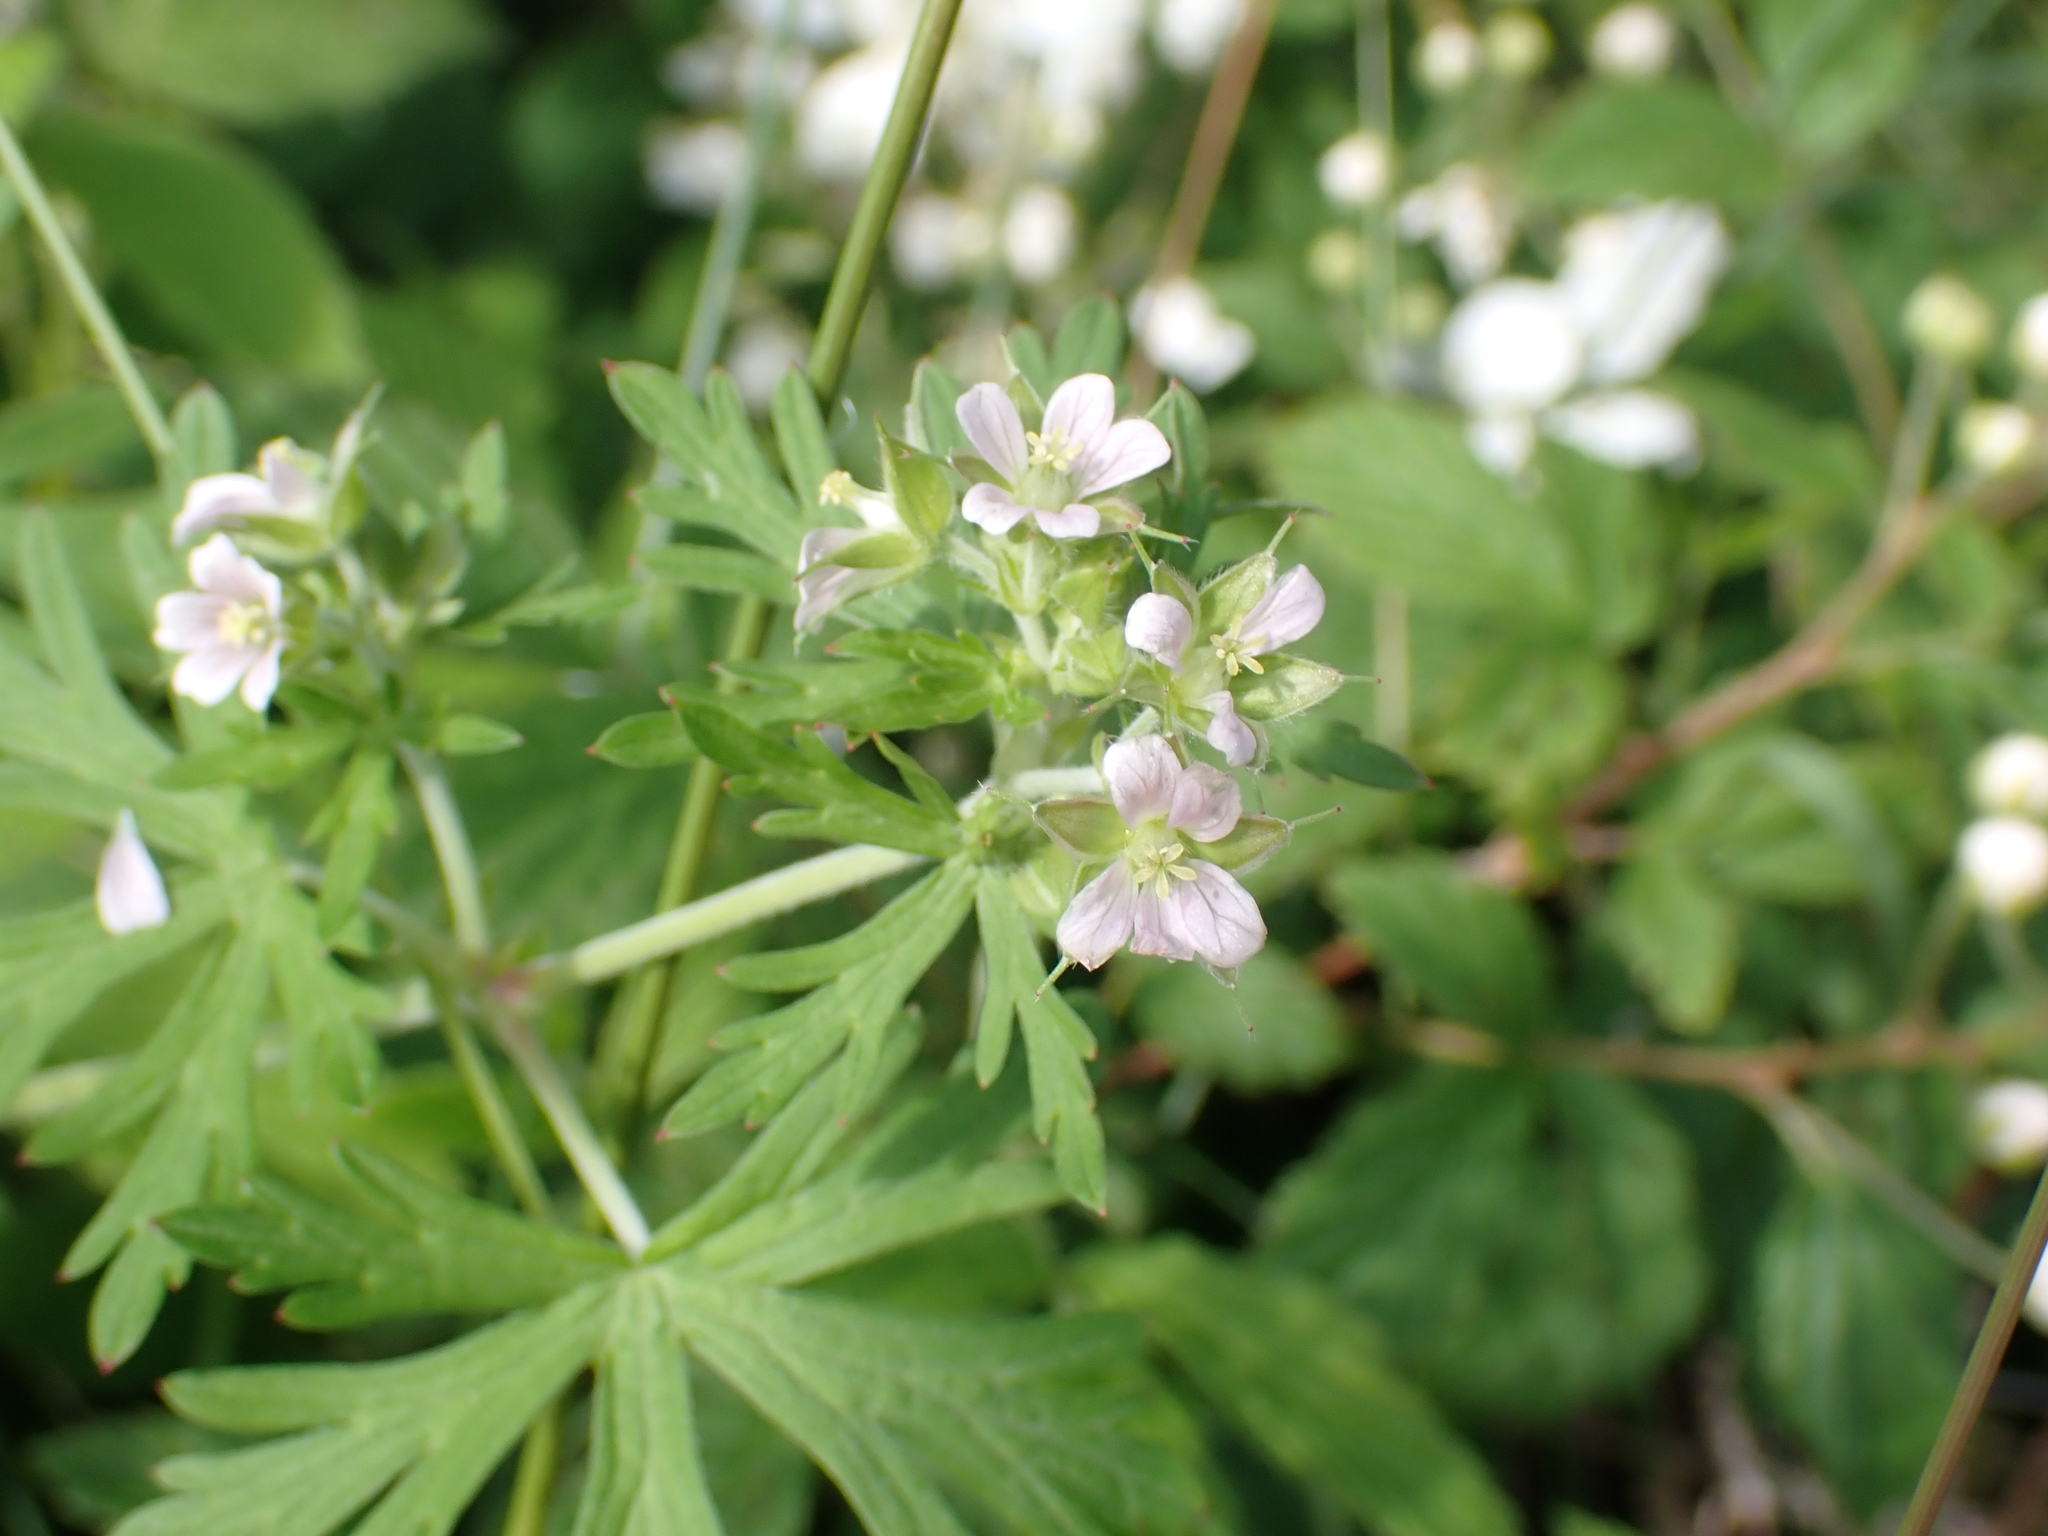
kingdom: Plantae
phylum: Tracheophyta
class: Magnoliopsida
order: Geraniales
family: Geraniaceae
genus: Geranium
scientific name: Geranium carolinianum
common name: Carolina crane's-bill
